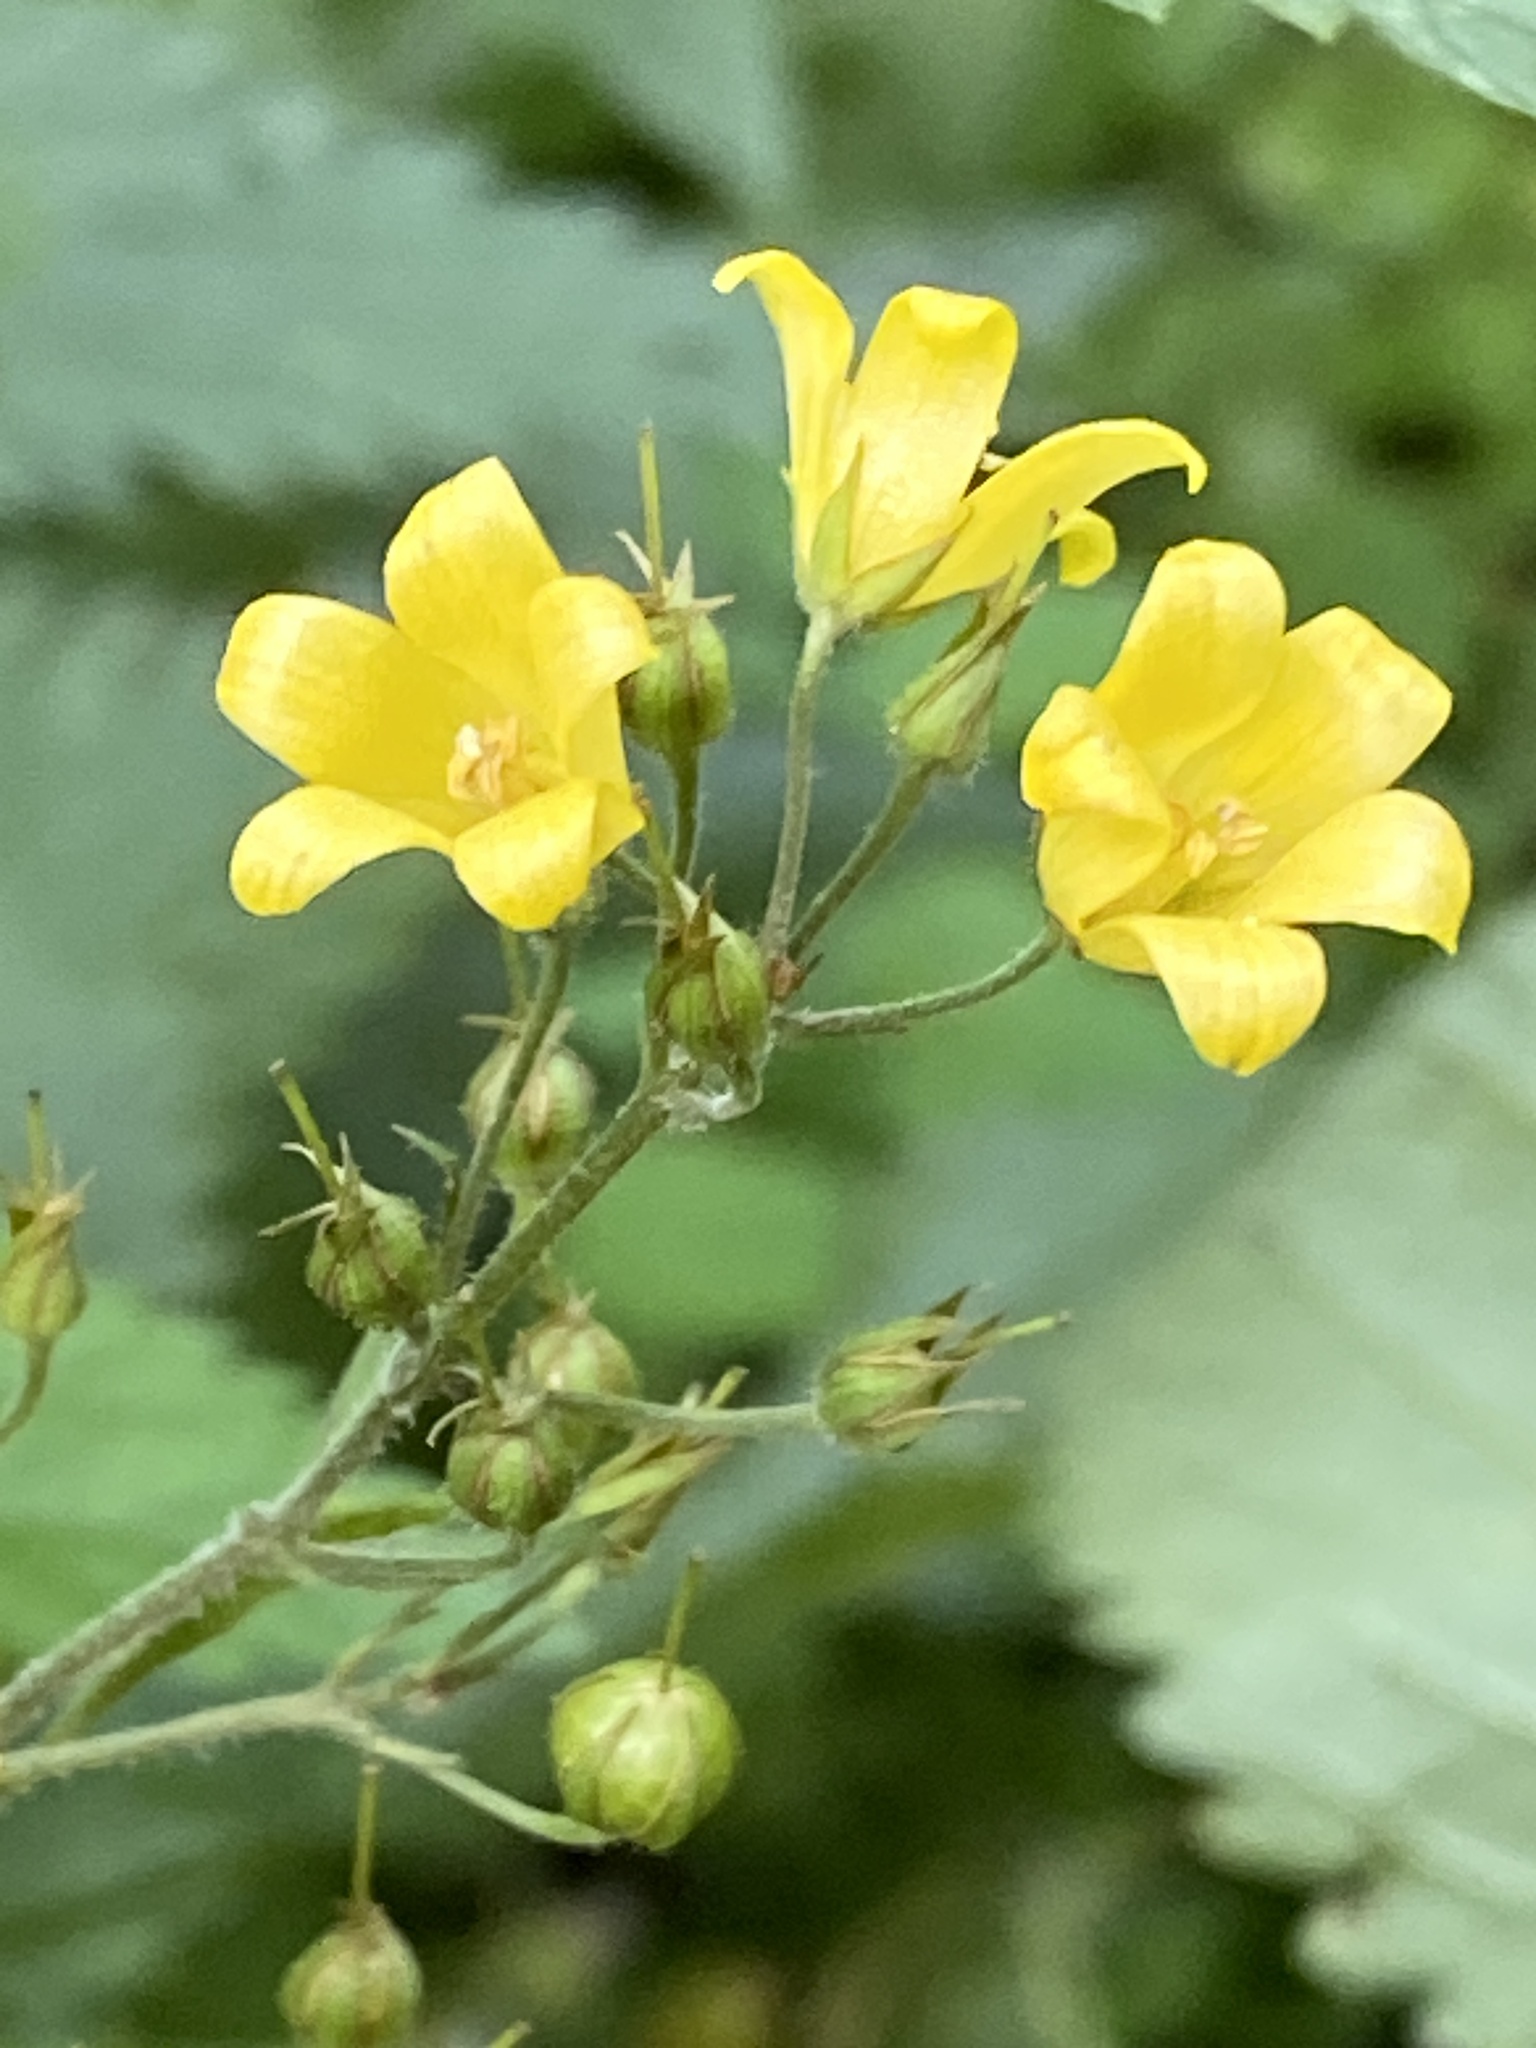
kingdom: Plantae
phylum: Tracheophyta
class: Magnoliopsida
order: Ericales
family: Primulaceae
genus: Lysimachia
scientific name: Lysimachia vulgaris
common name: Yellow loosestrife
